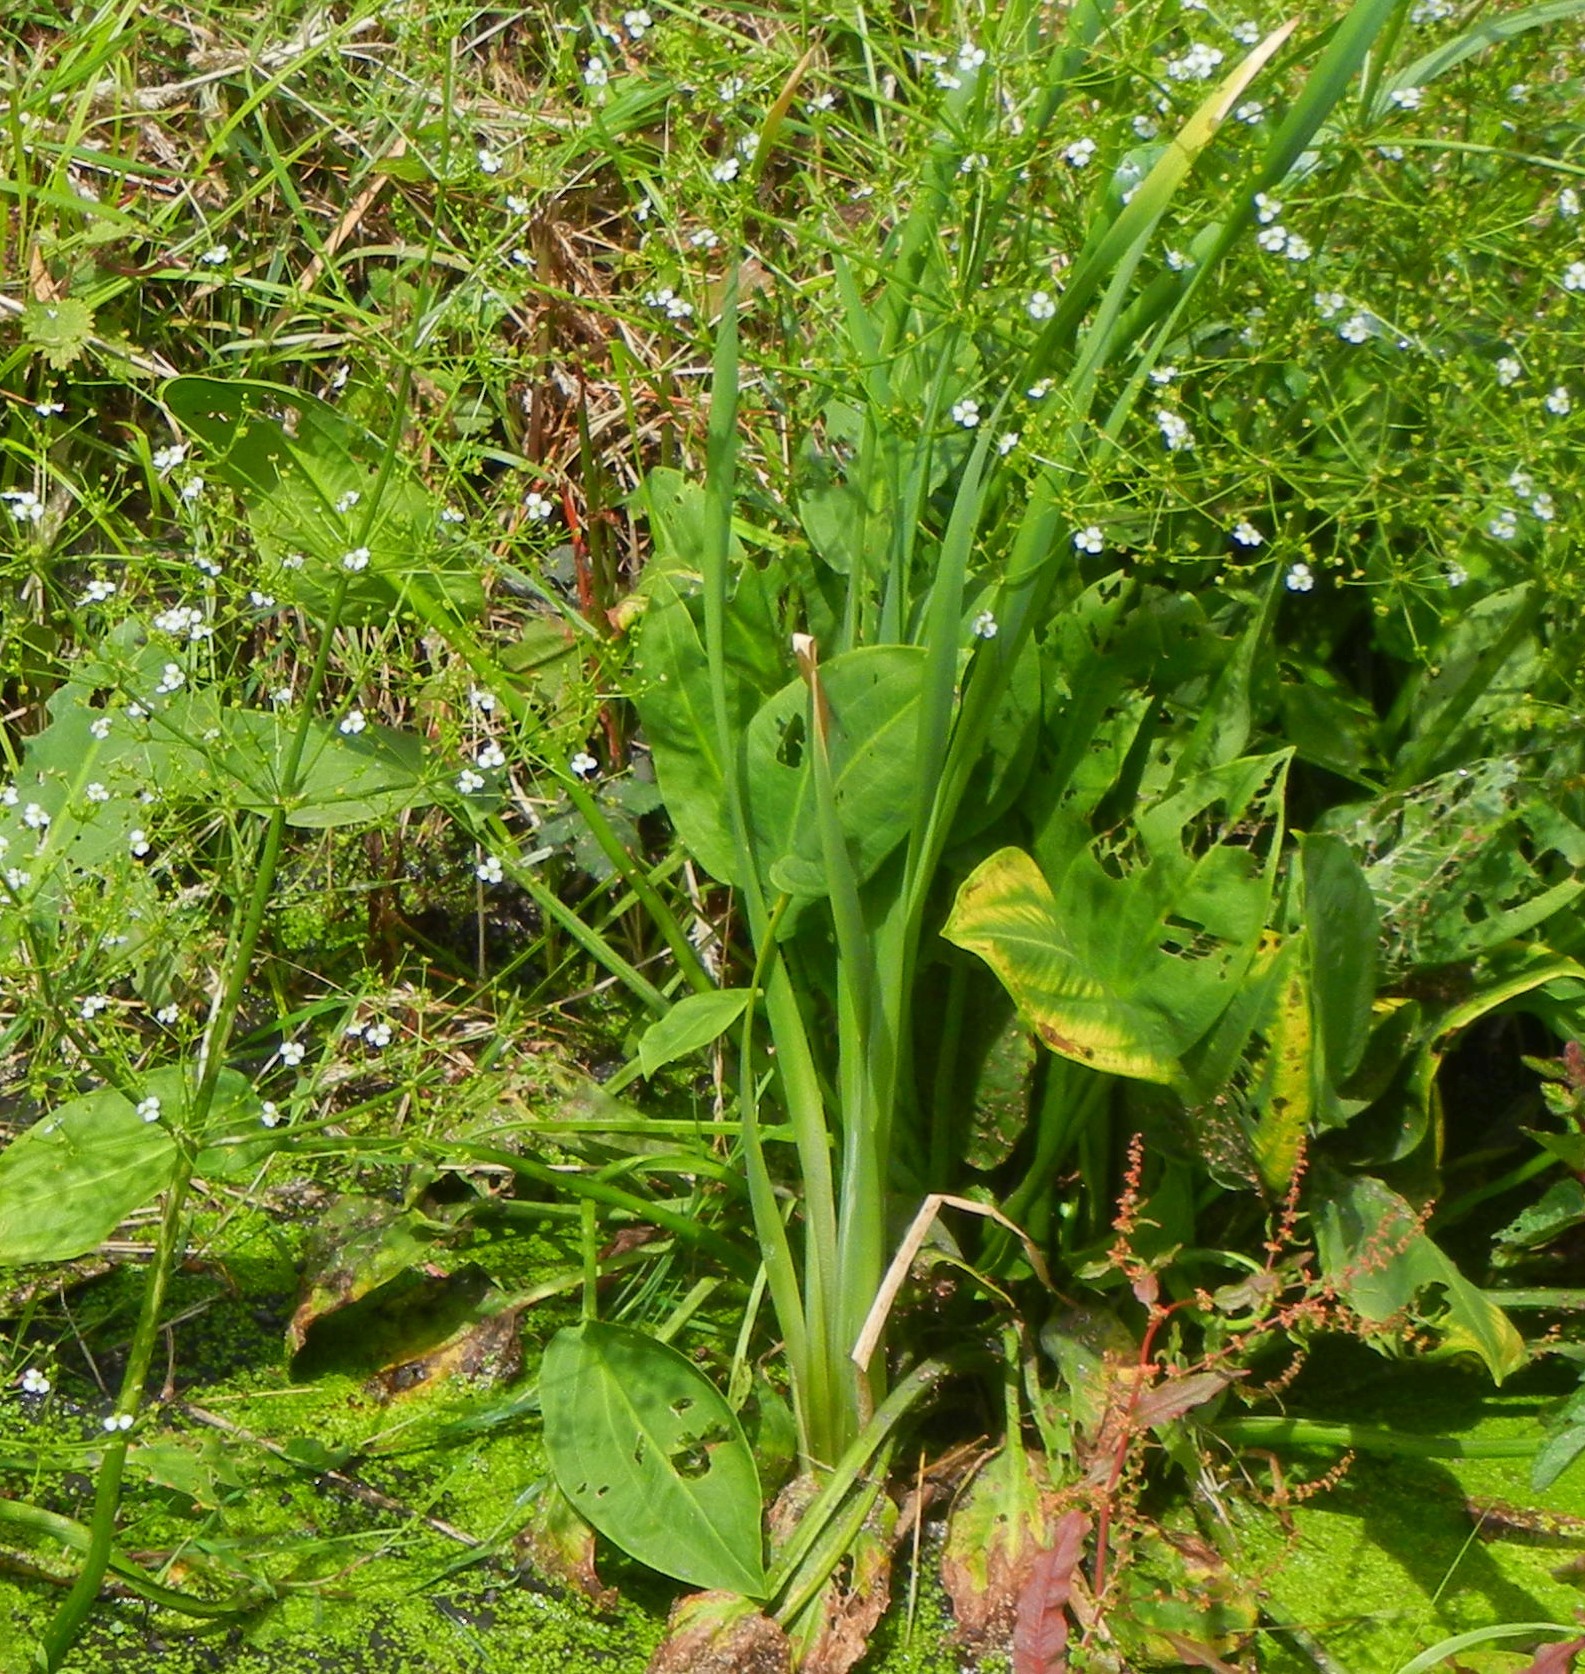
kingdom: Plantae
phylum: Tracheophyta
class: Liliopsida
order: Alismatales
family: Alismataceae
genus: Alisma
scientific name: Alisma plantago-aquatica
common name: Water-plantain
